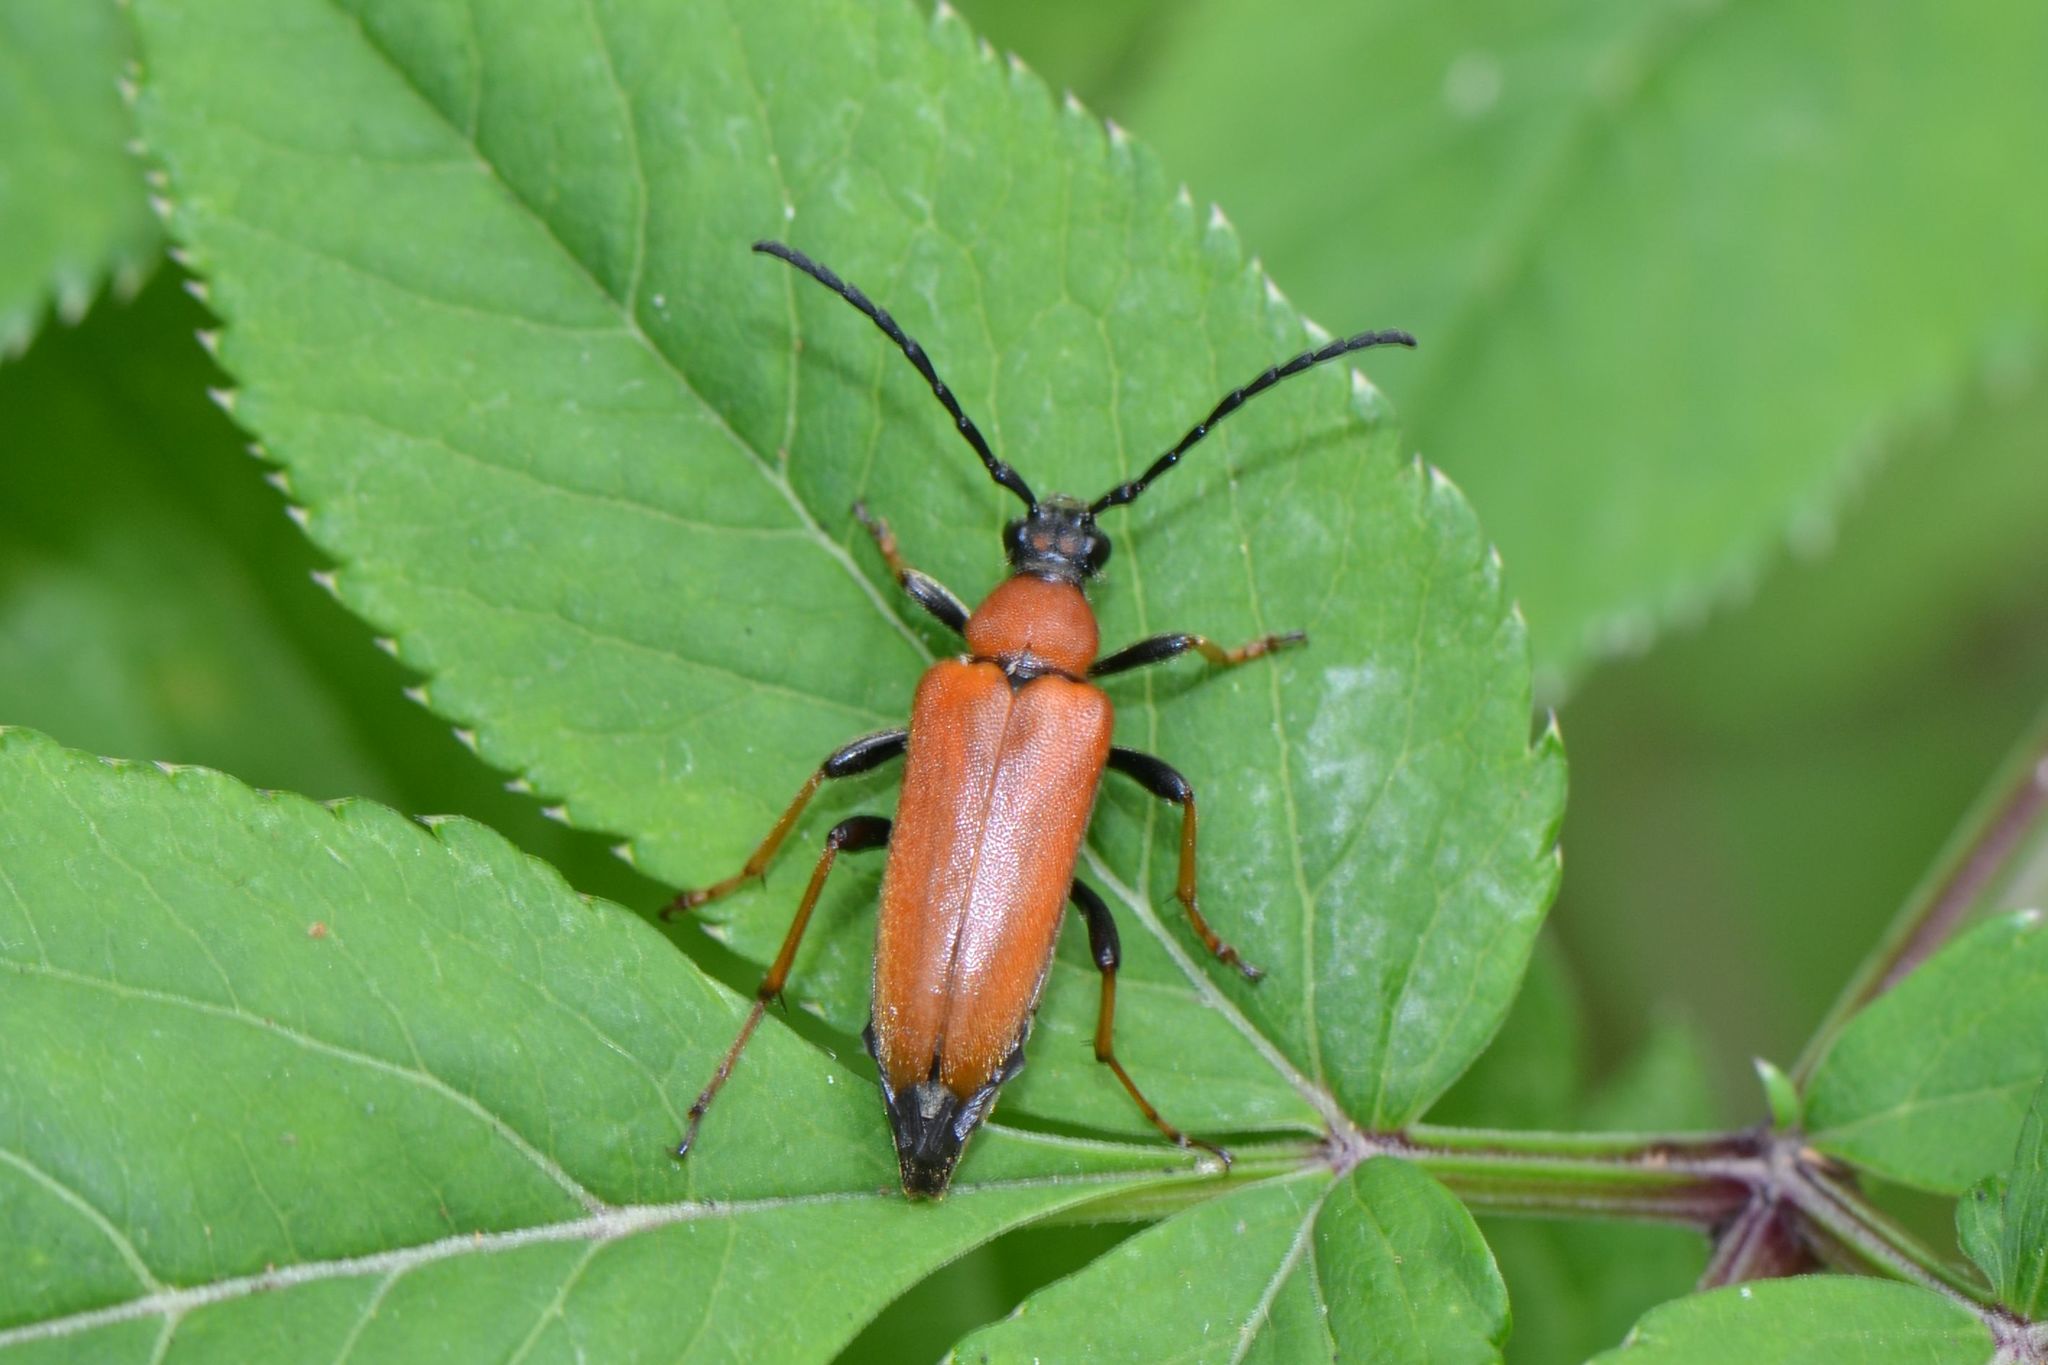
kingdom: Animalia
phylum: Arthropoda
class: Insecta
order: Coleoptera
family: Cerambycidae
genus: Stictoleptura
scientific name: Stictoleptura rubra
